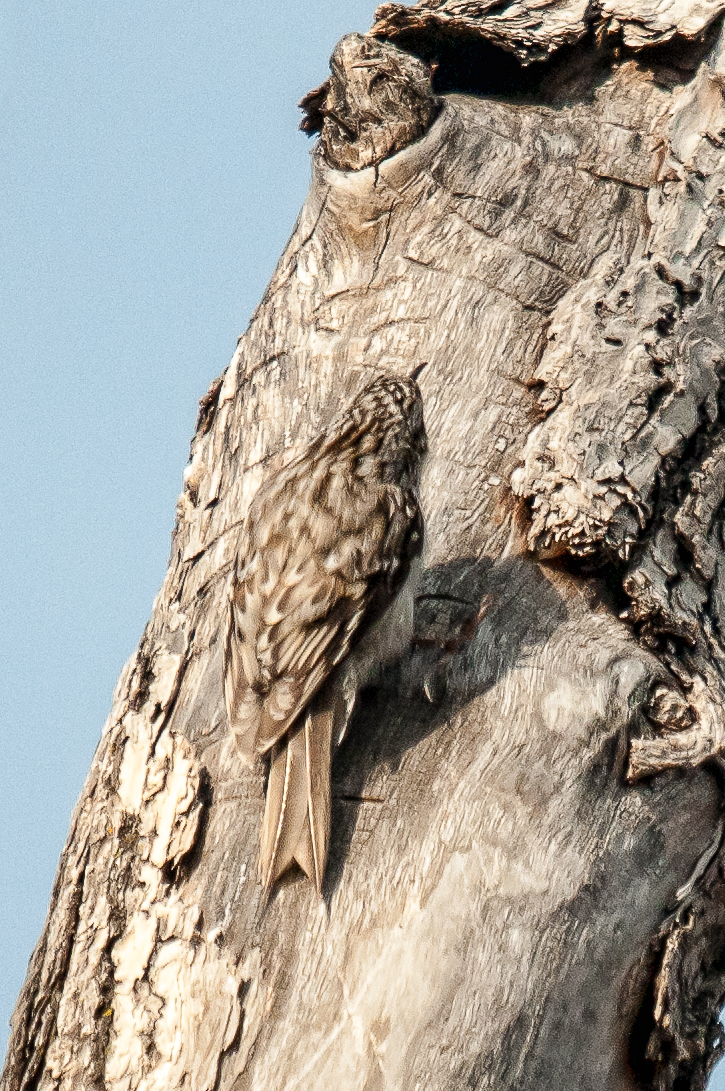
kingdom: Animalia
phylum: Chordata
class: Aves
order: Passeriformes
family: Certhiidae
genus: Certhia
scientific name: Certhia americana
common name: Brown creeper
